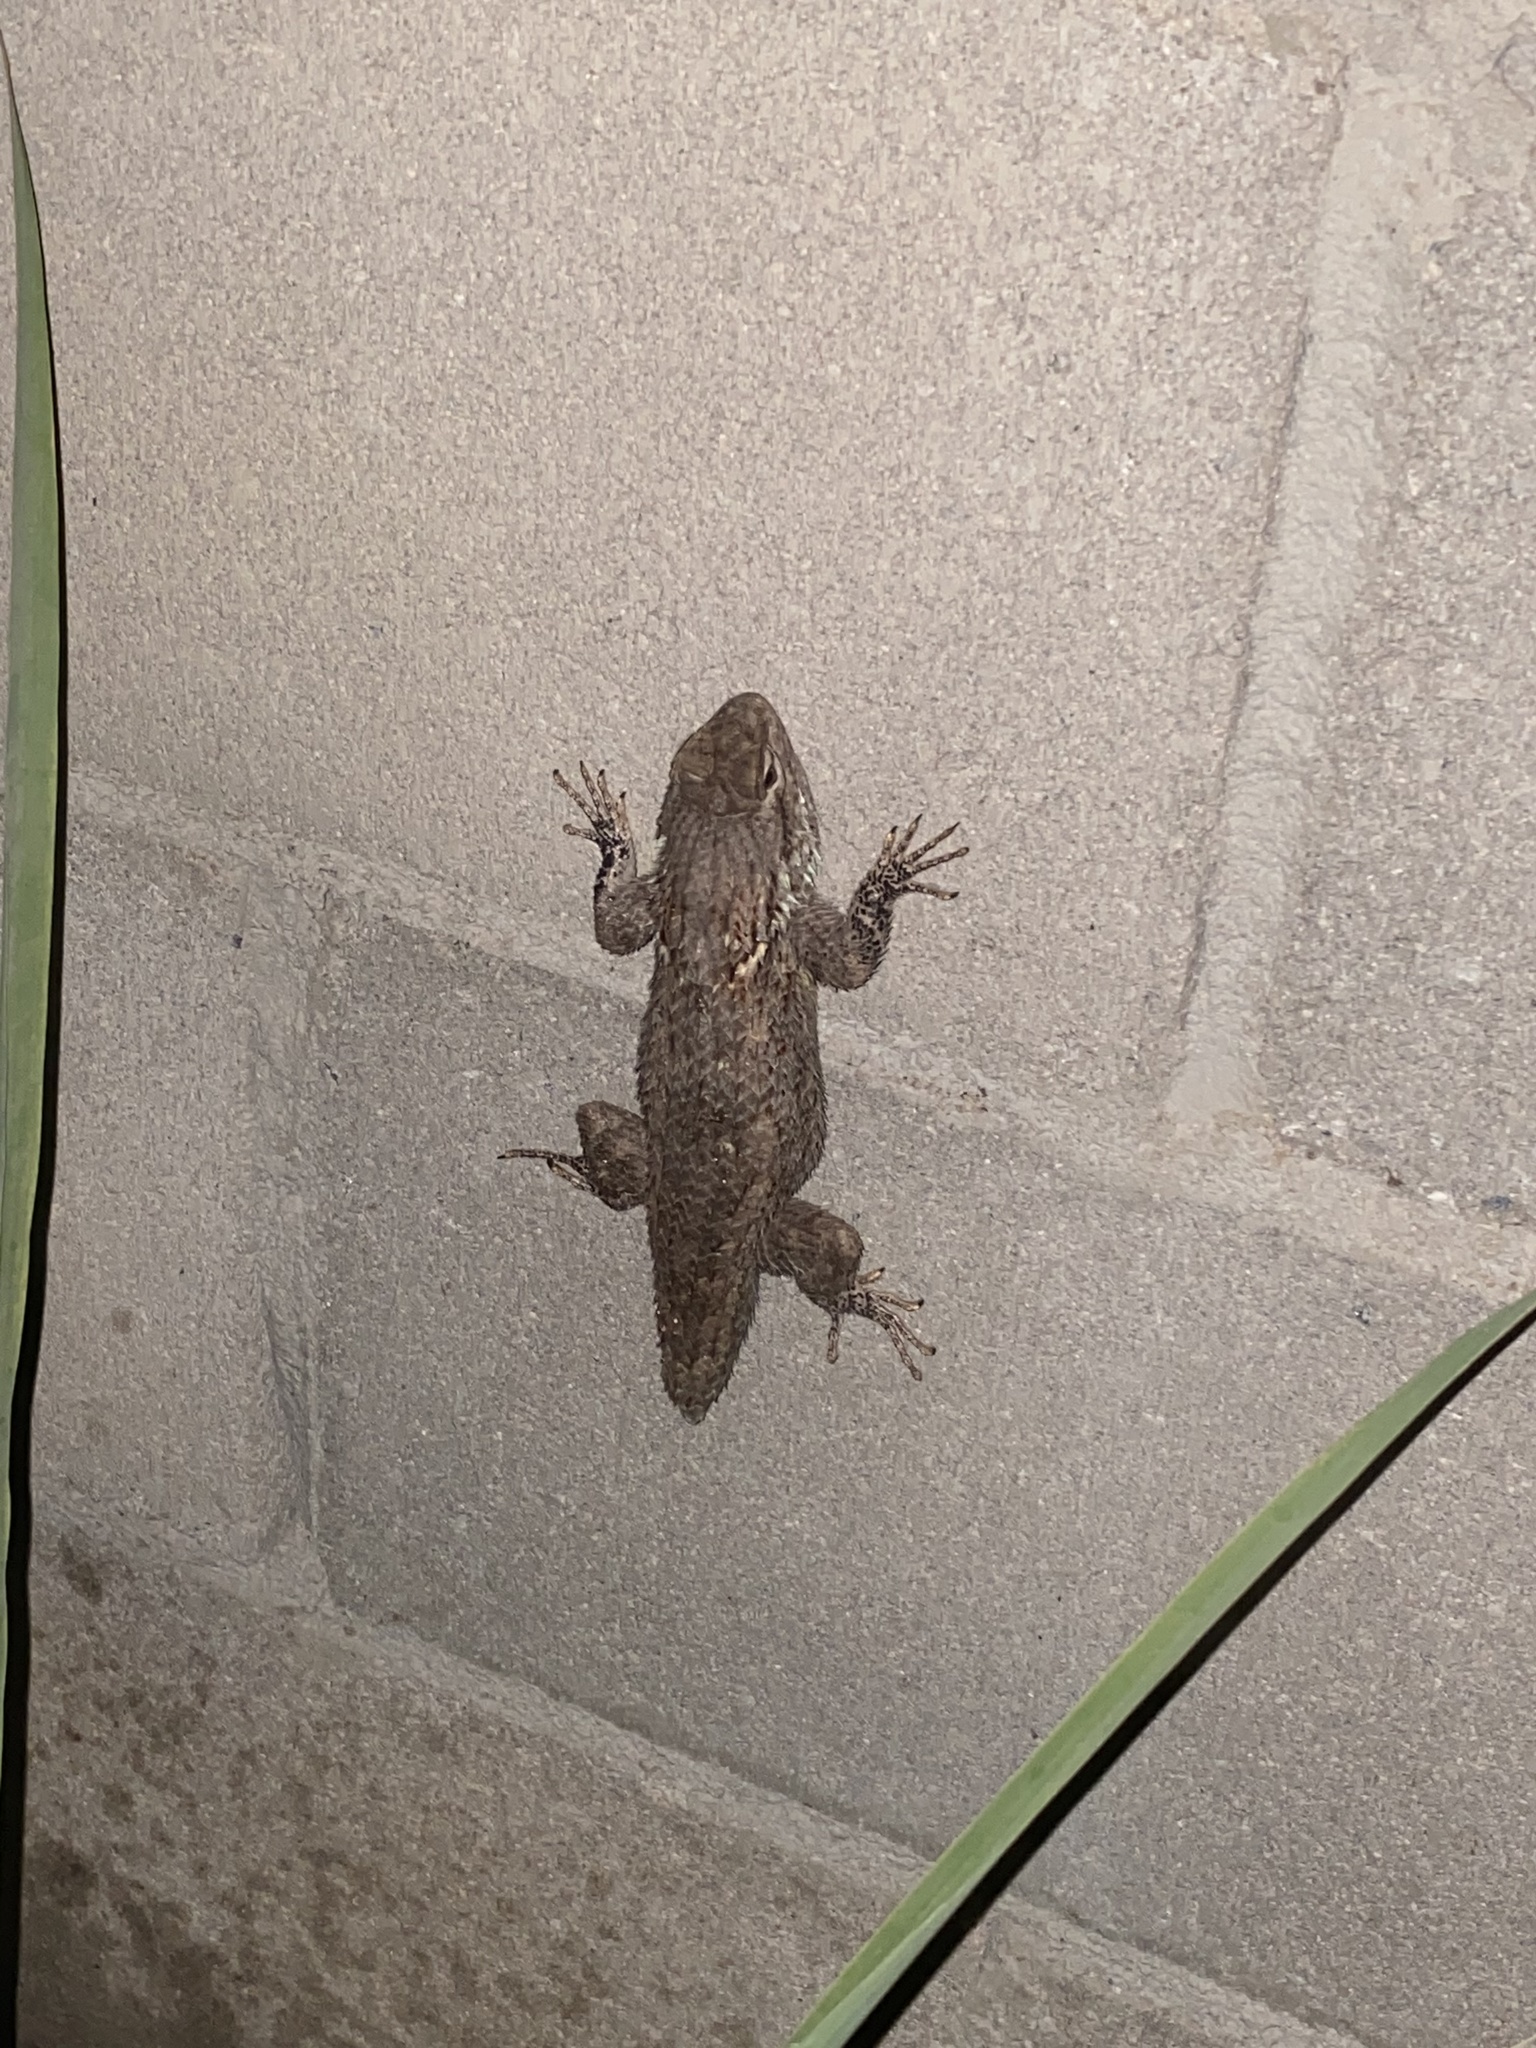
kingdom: Animalia
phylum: Chordata
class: Squamata
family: Phrynosomatidae
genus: Sceloporus
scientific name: Sceloporus clarkii
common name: Clark's spiny lizard
